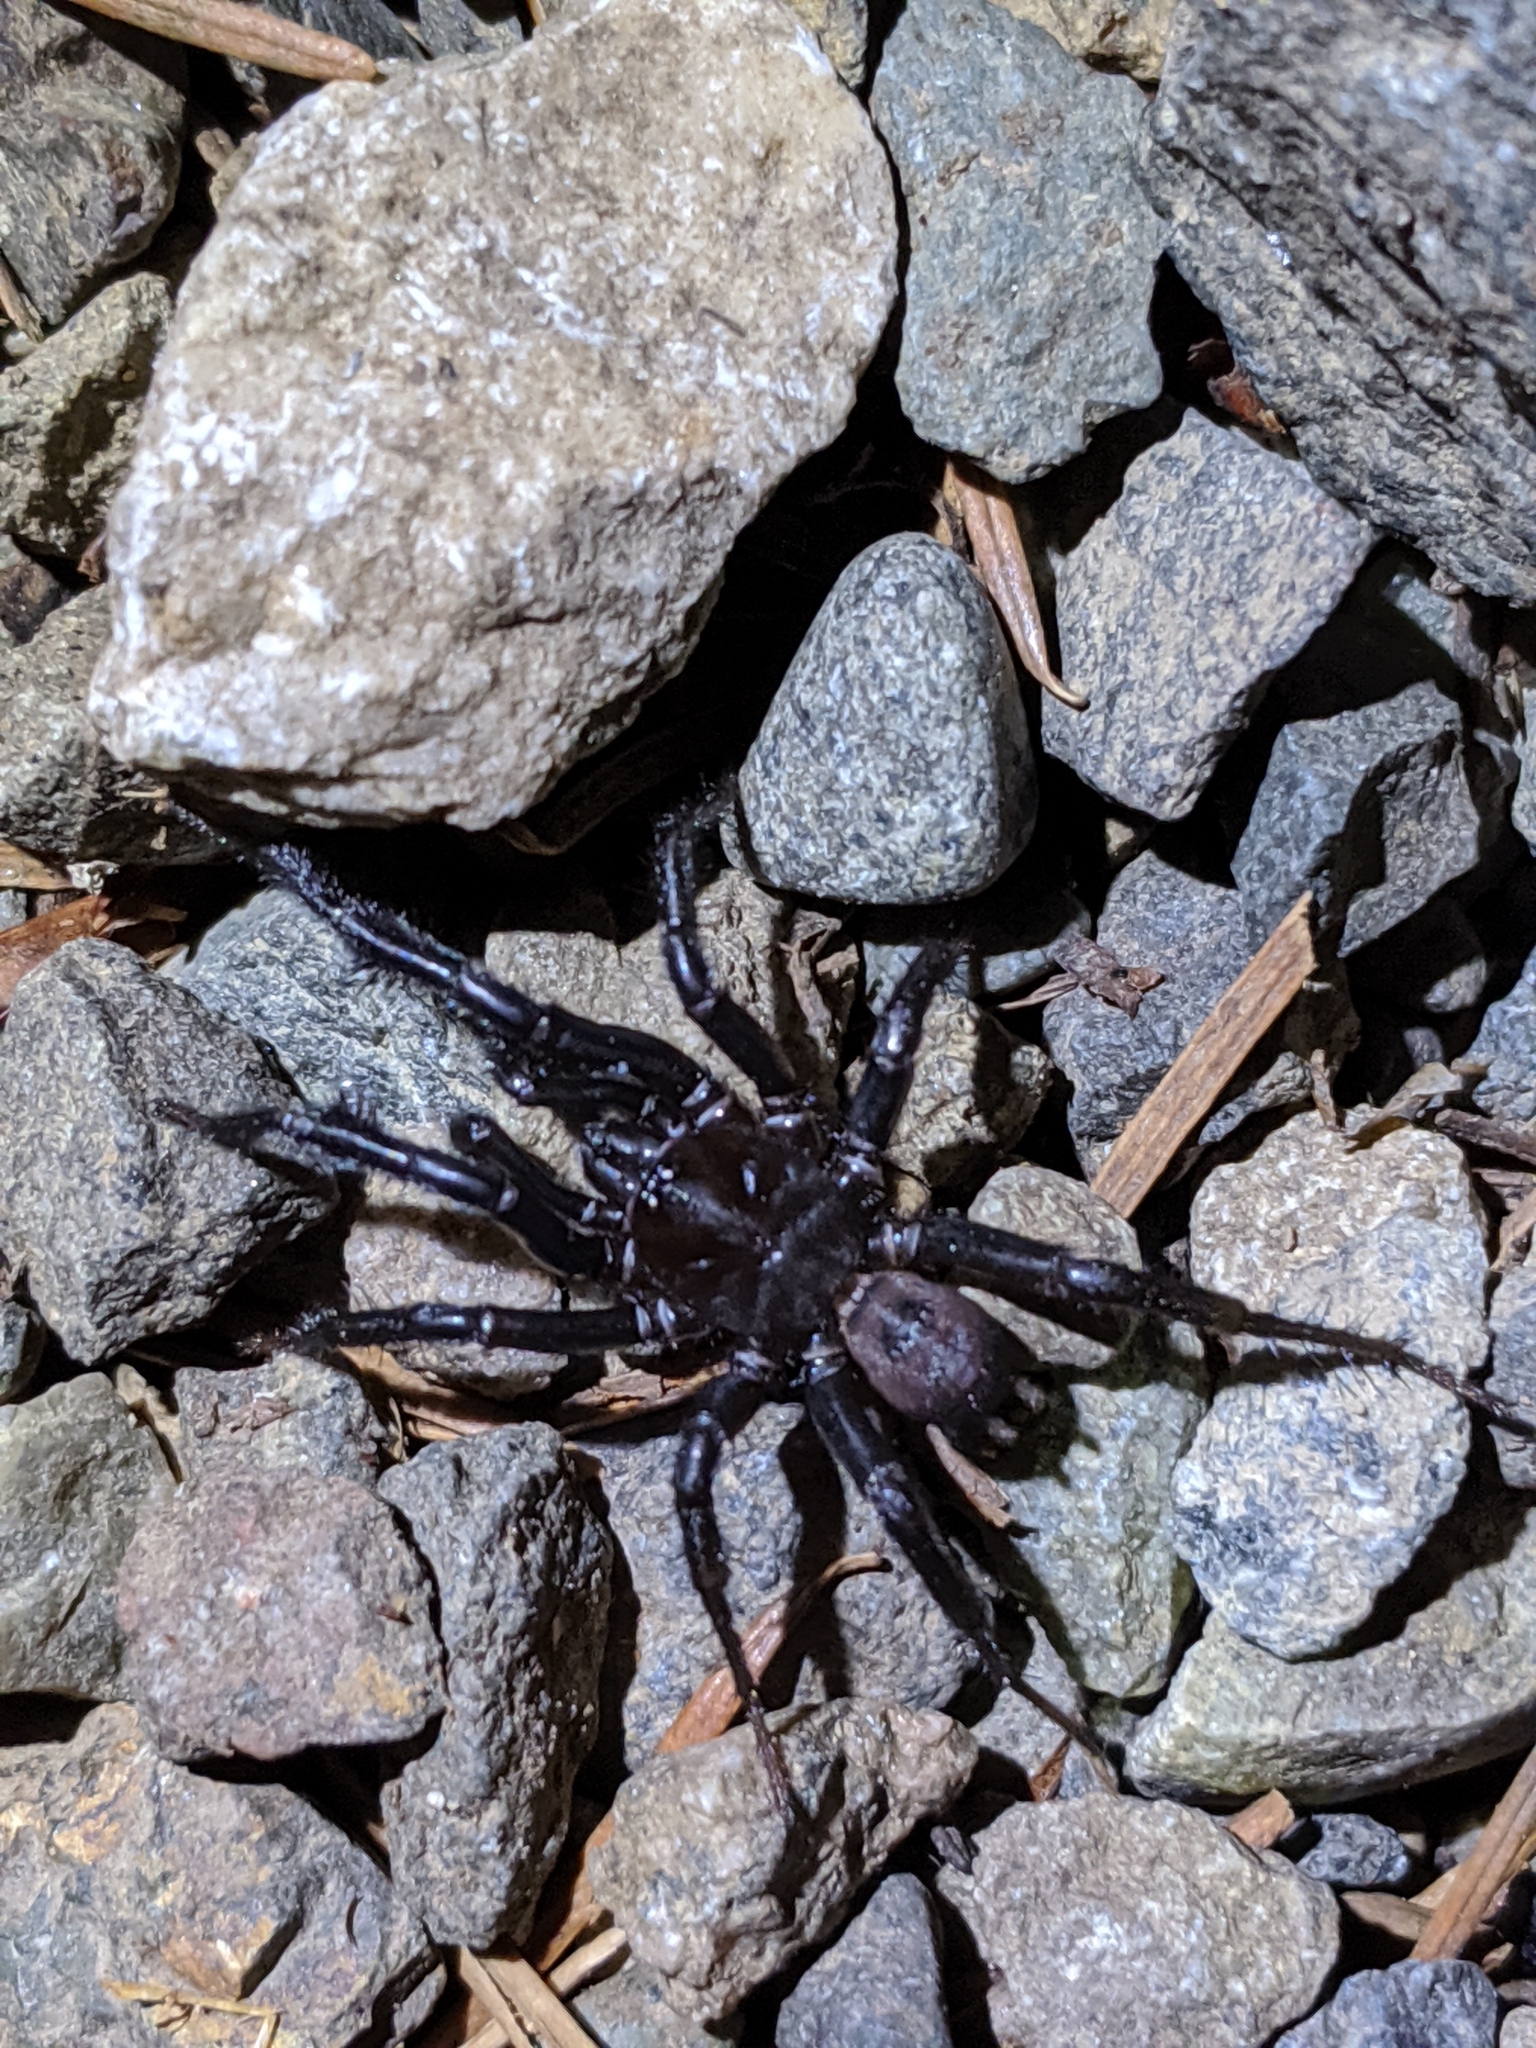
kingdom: Animalia
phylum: Arthropoda
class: Arachnida
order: Araneae
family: Antrodiaetidae
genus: Antrodiaetus
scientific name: Antrodiaetus pacificus
